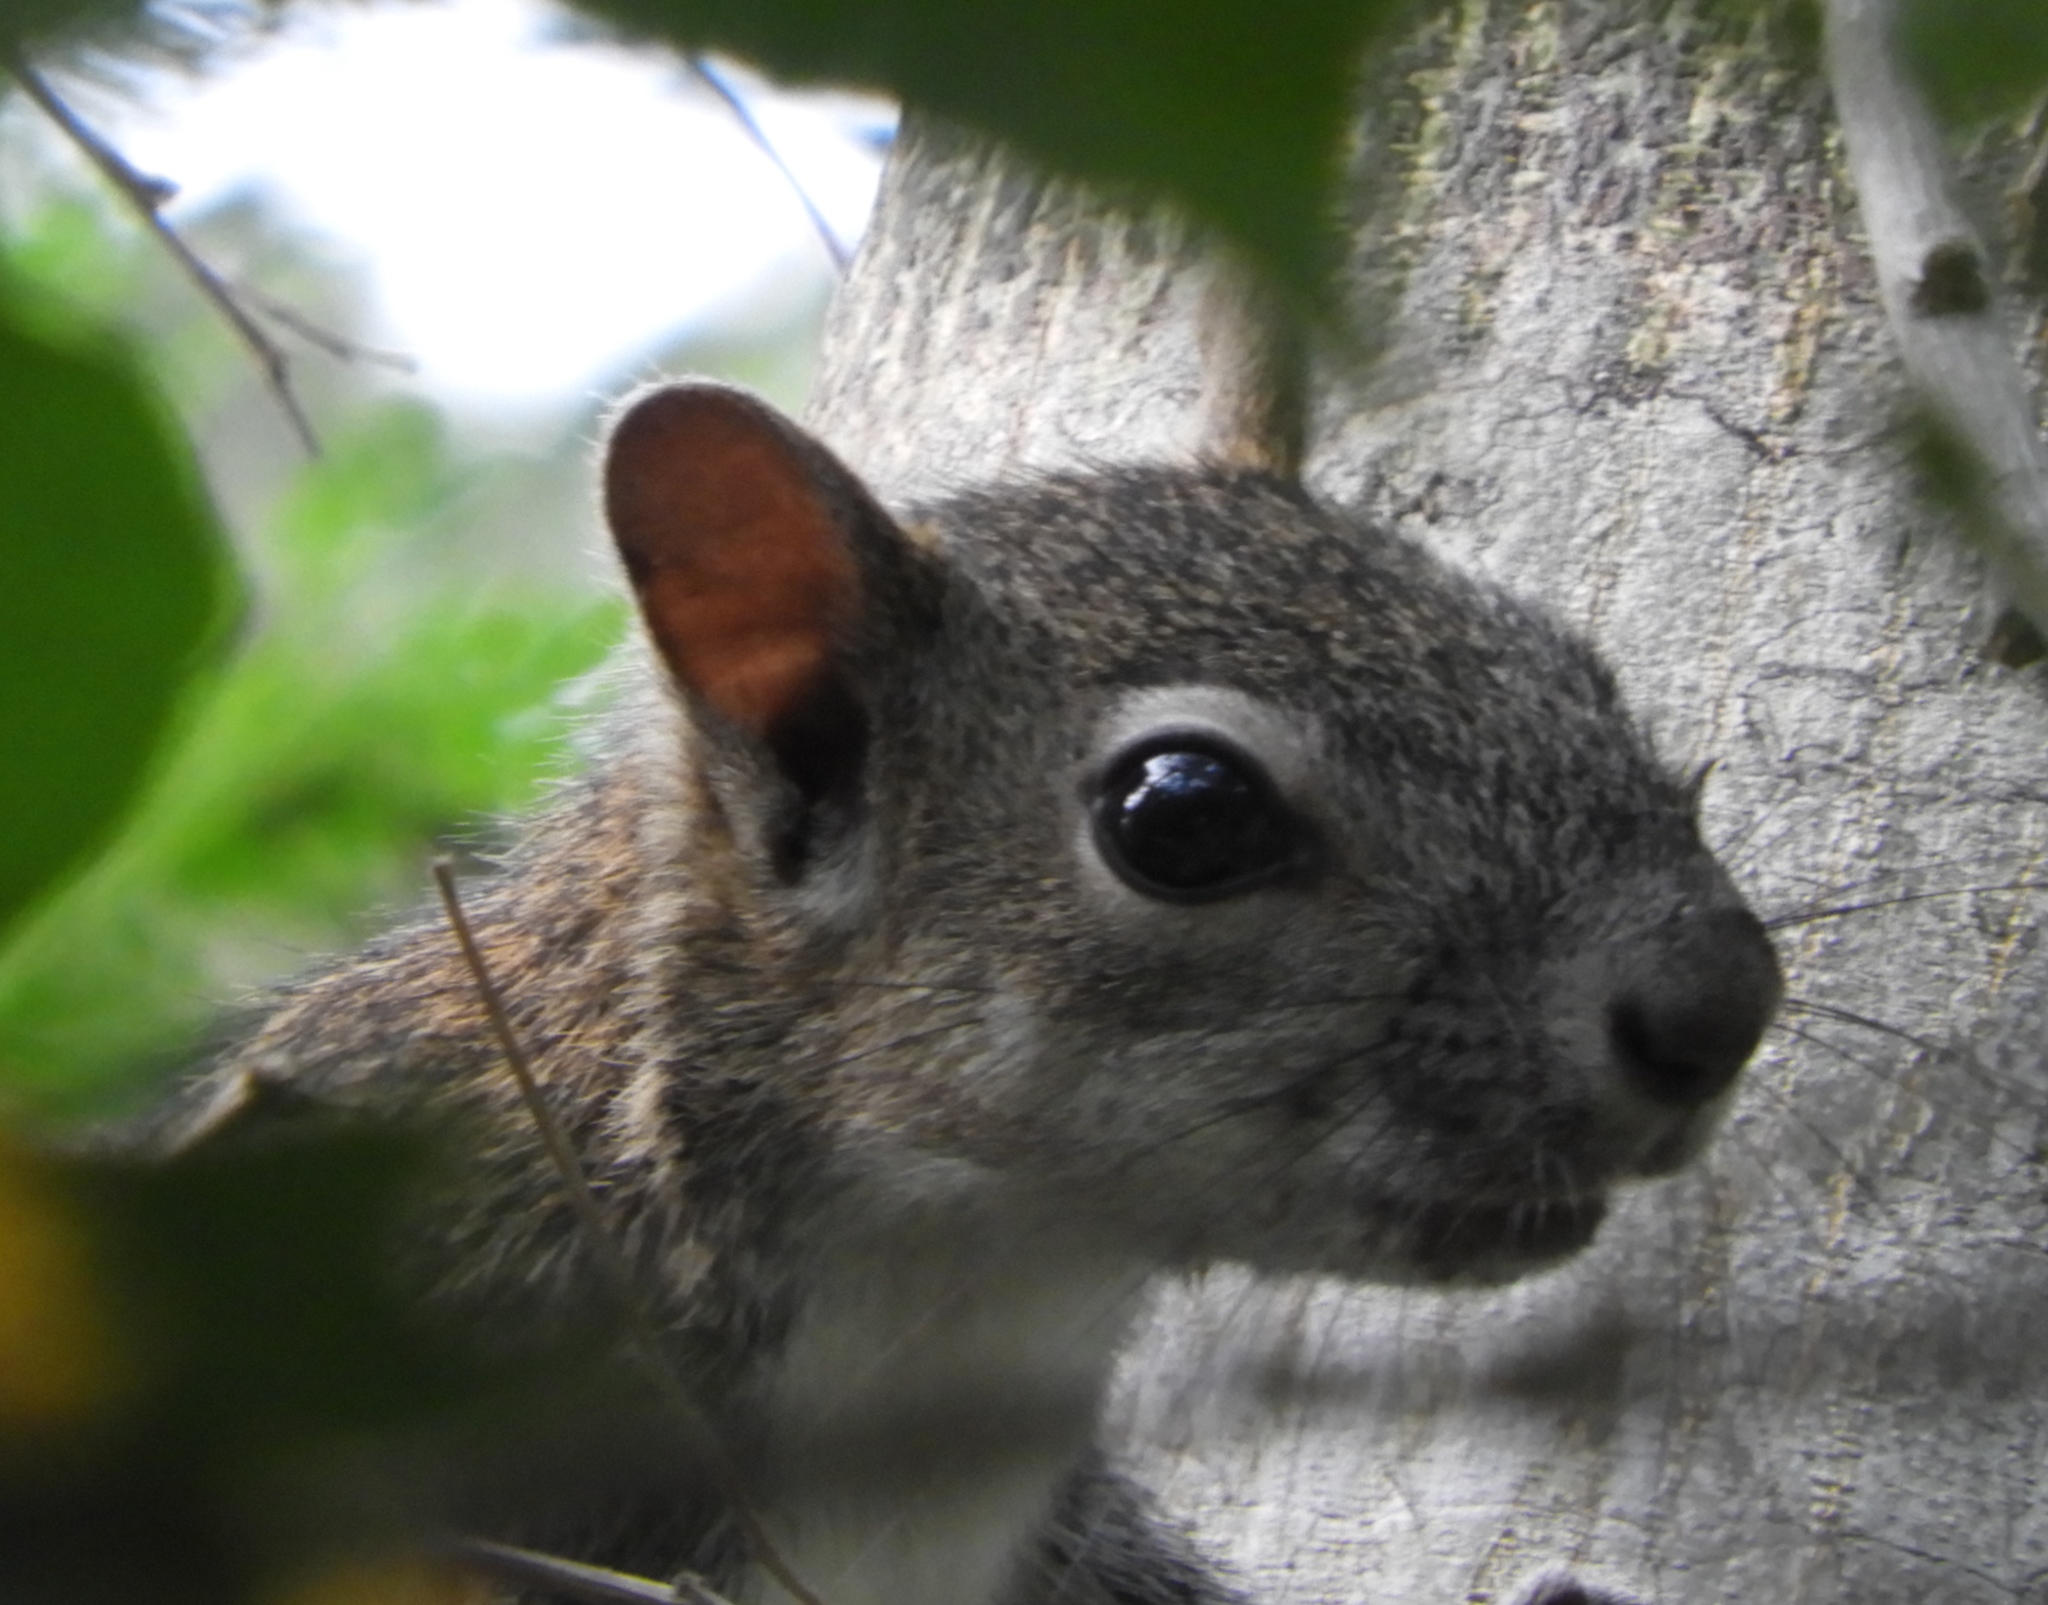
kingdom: Animalia
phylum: Chordata
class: Mammalia
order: Rodentia
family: Sciuridae
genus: Sciurus
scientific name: Sciurus colliaei
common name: Collie's squirrel
